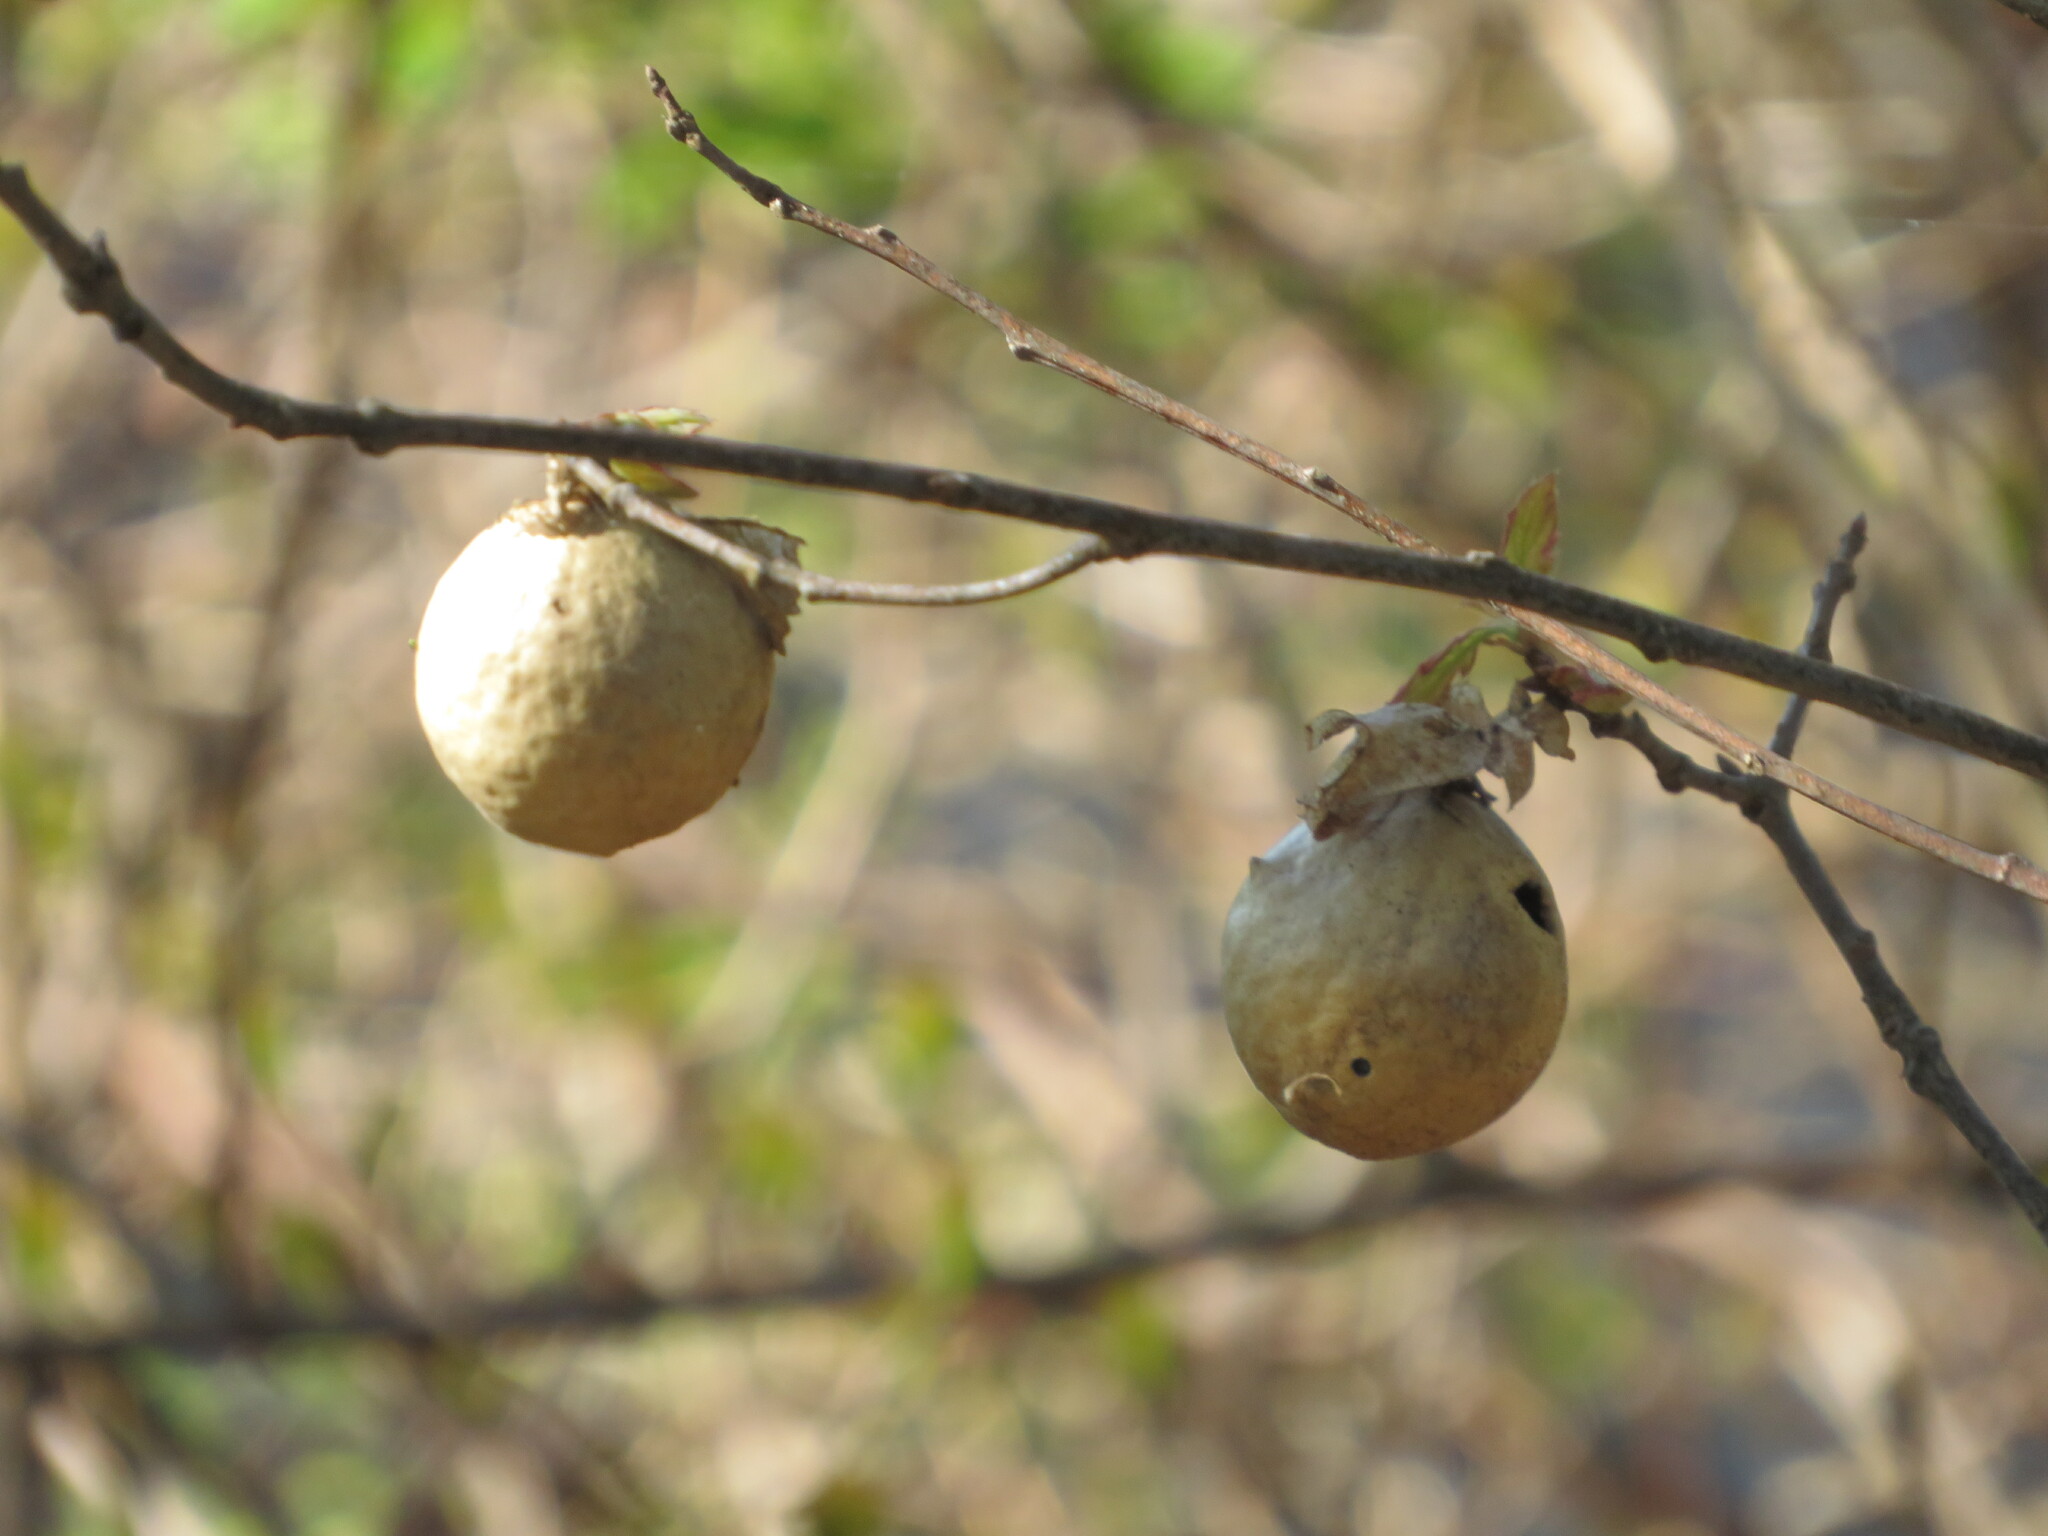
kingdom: Animalia
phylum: Arthropoda
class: Insecta
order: Hymenoptera
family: Cynipidae
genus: Amphibolips
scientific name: Amphibolips
